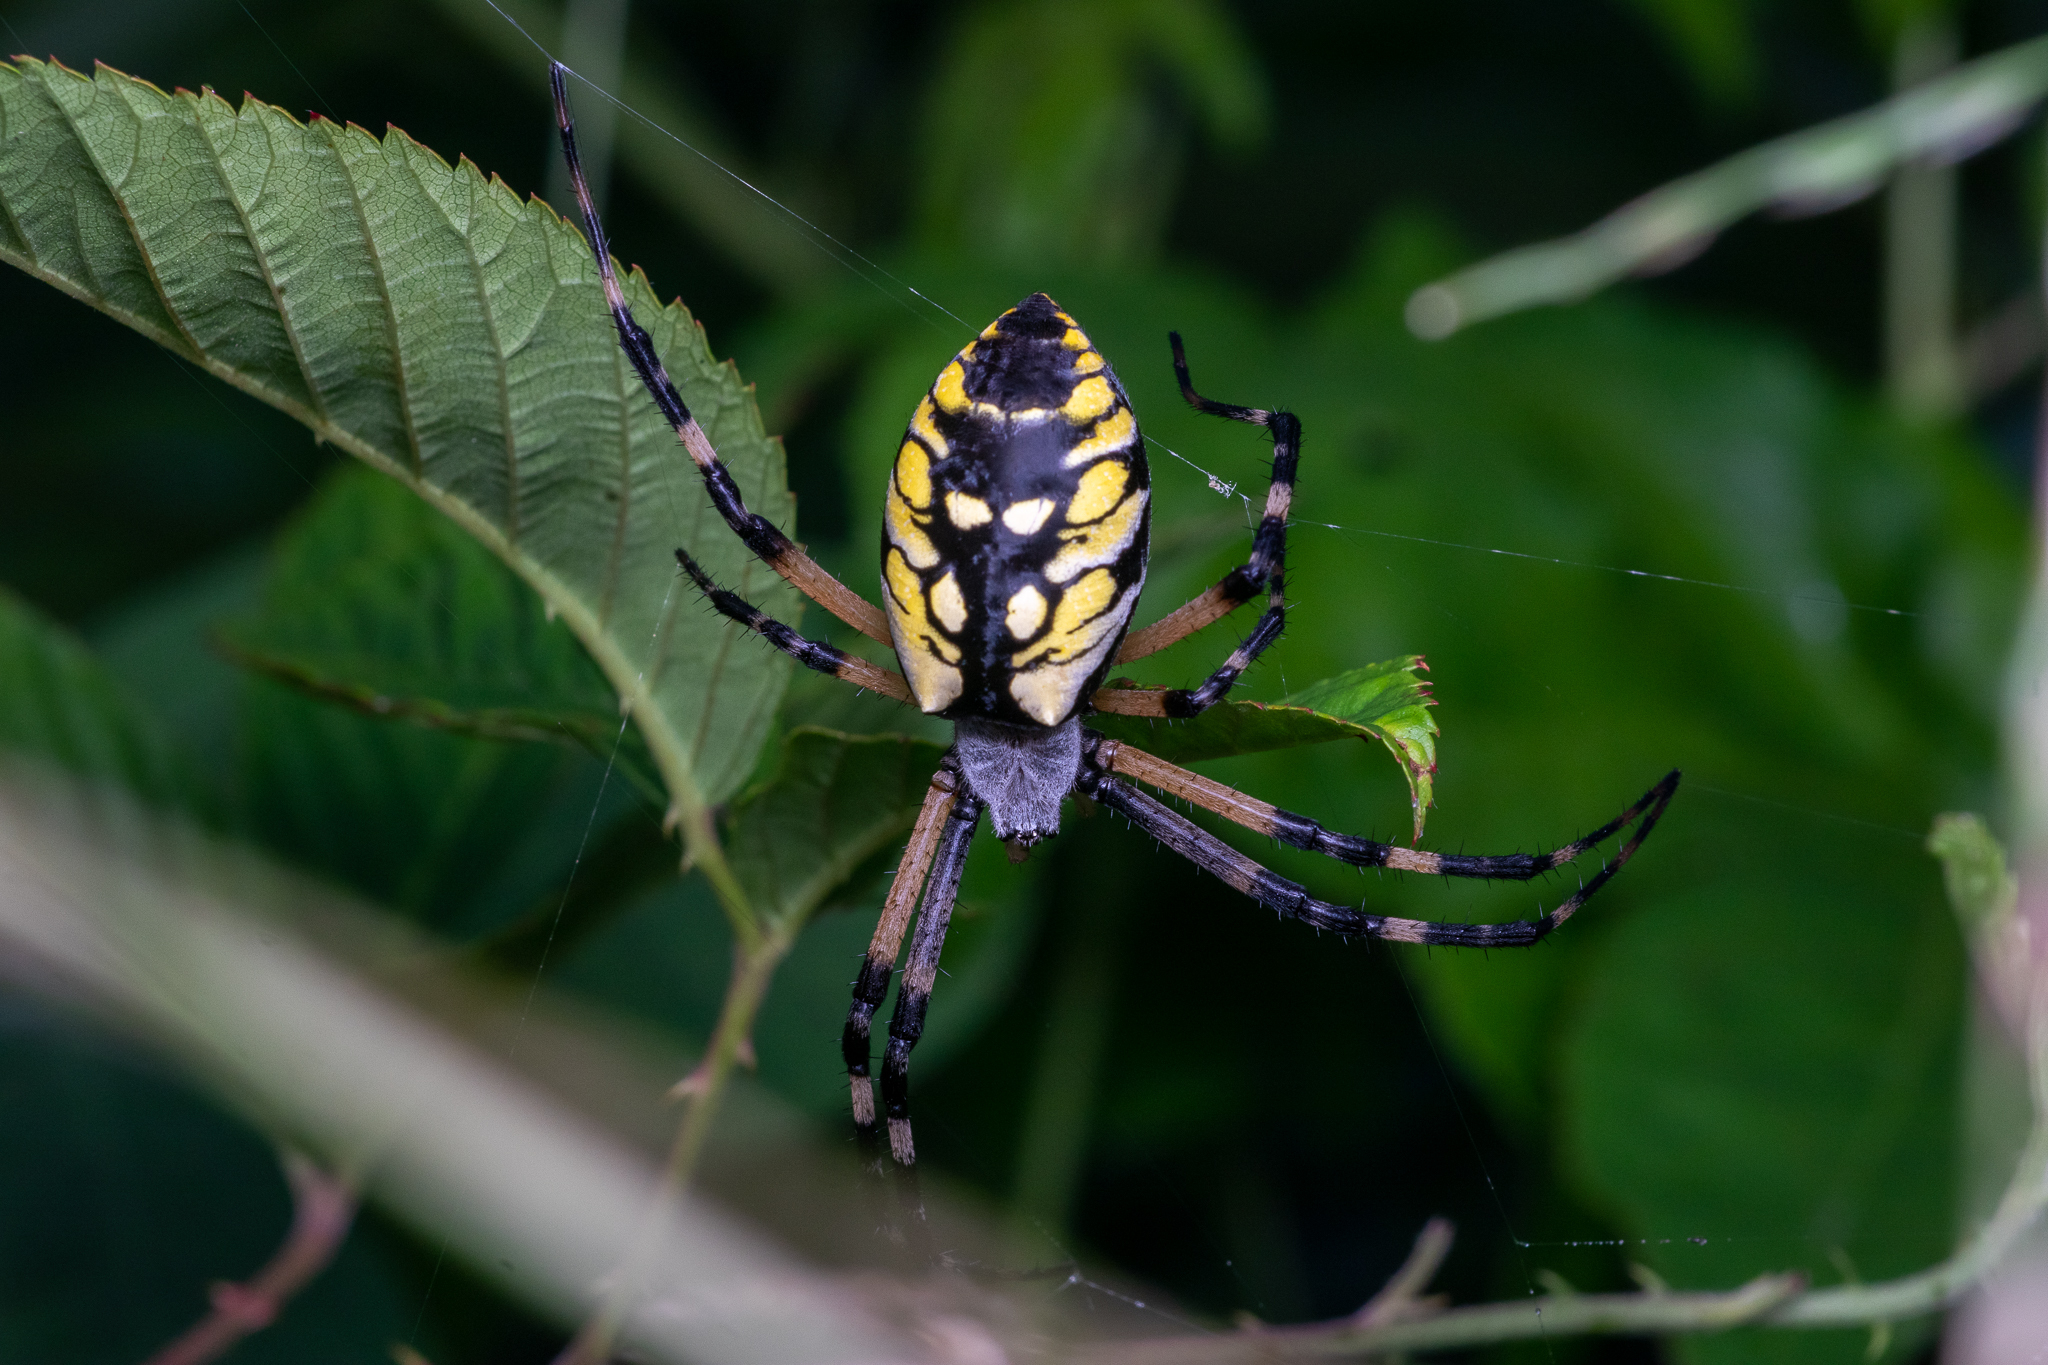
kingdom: Animalia
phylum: Arthropoda
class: Arachnida
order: Araneae
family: Araneidae
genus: Argiope
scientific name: Argiope aurantia
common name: Orb weavers
